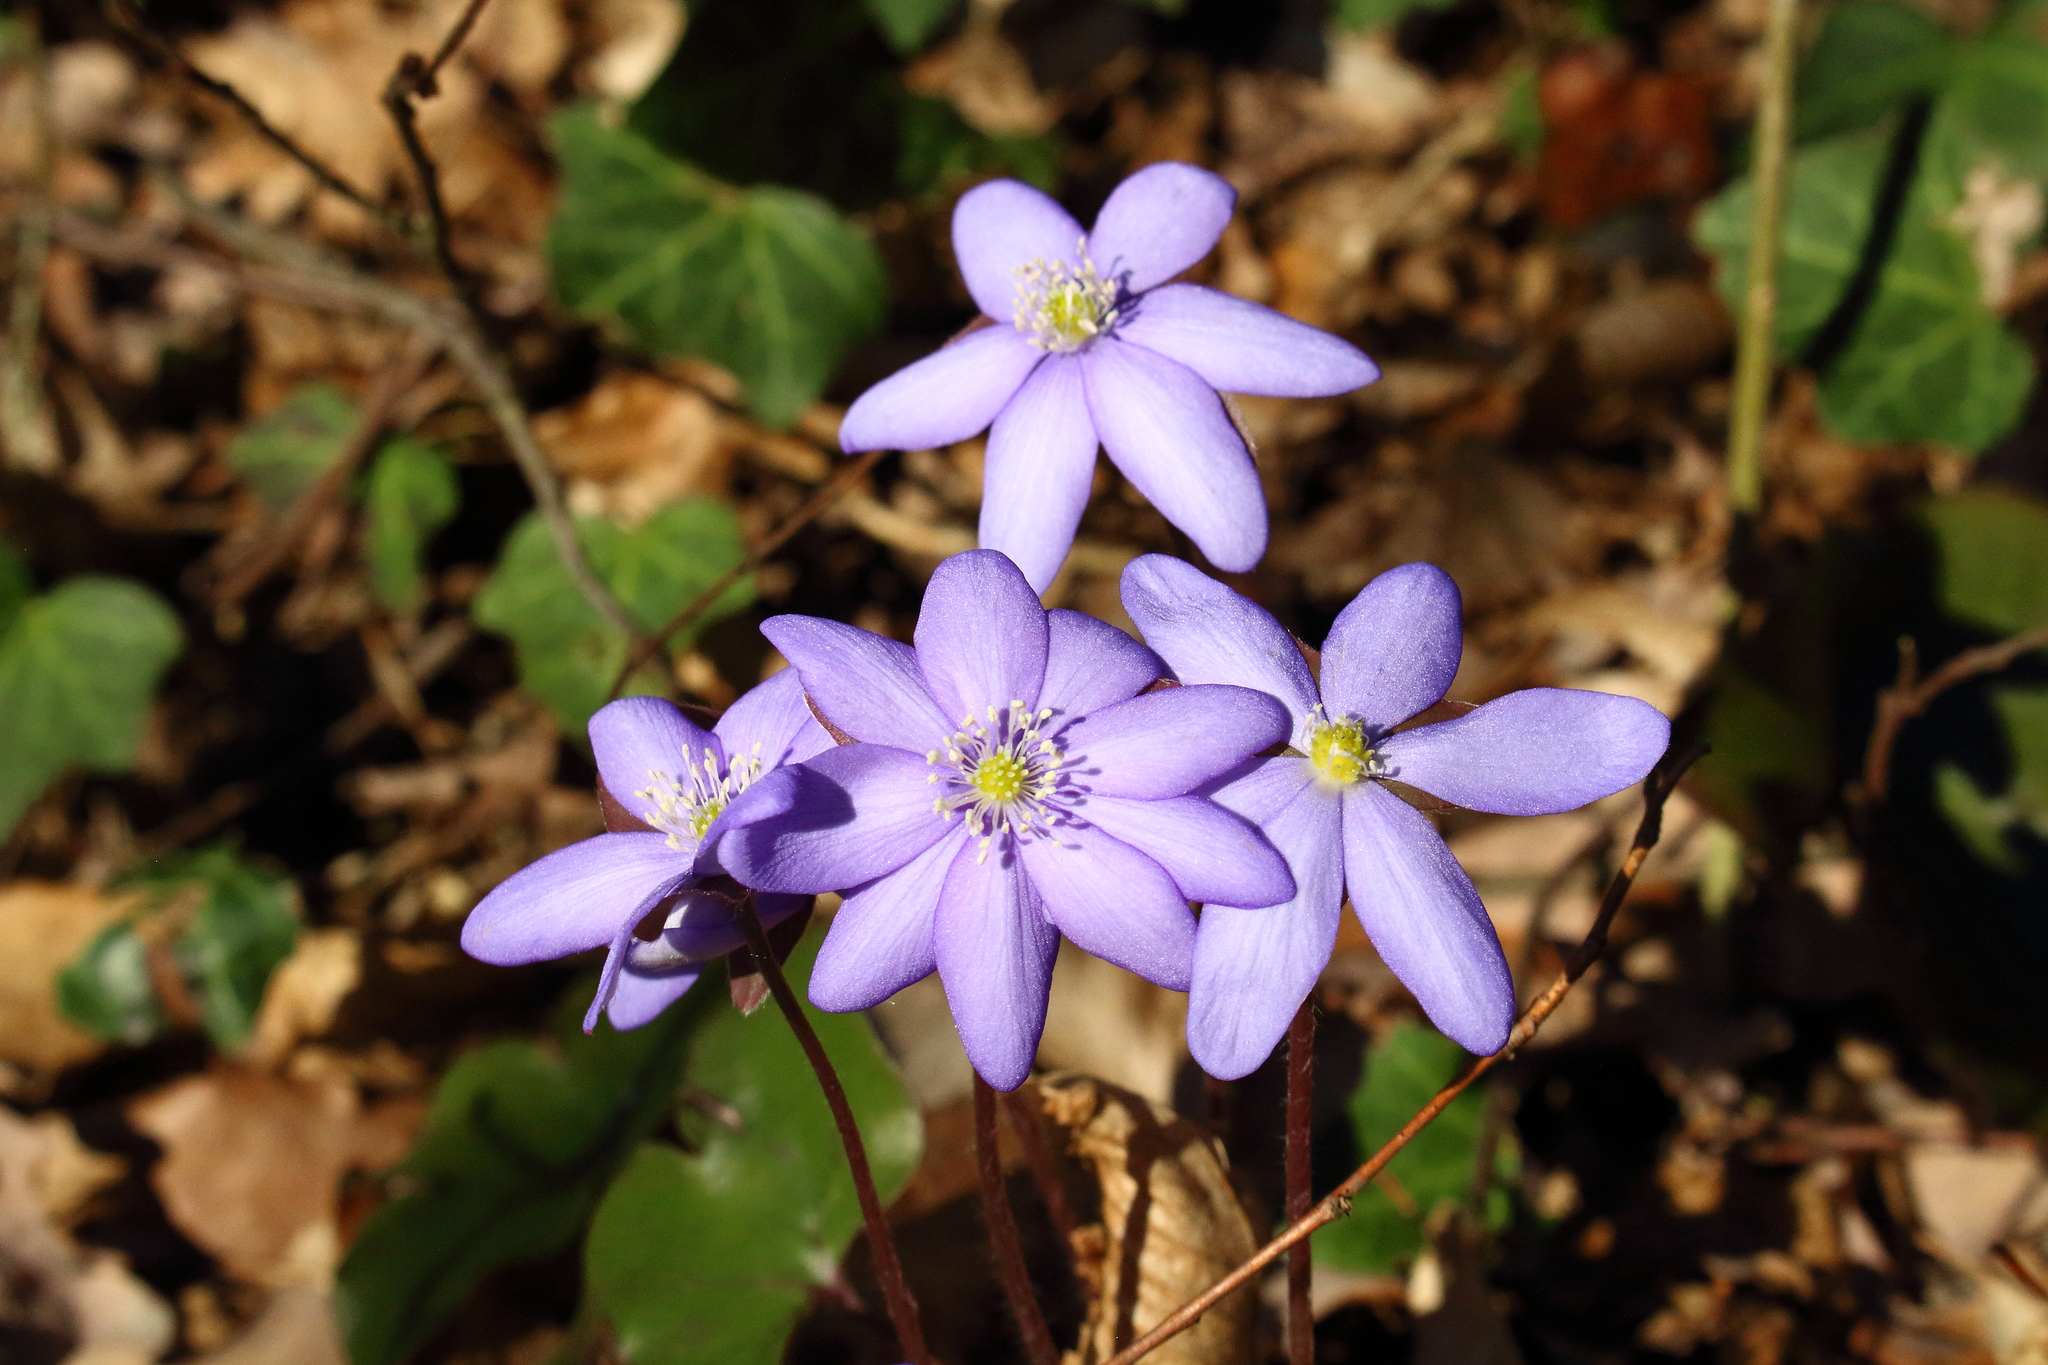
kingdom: Plantae
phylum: Tracheophyta
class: Magnoliopsida
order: Ranunculales
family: Ranunculaceae
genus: Hepatica
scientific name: Hepatica nobilis
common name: Liverleaf
